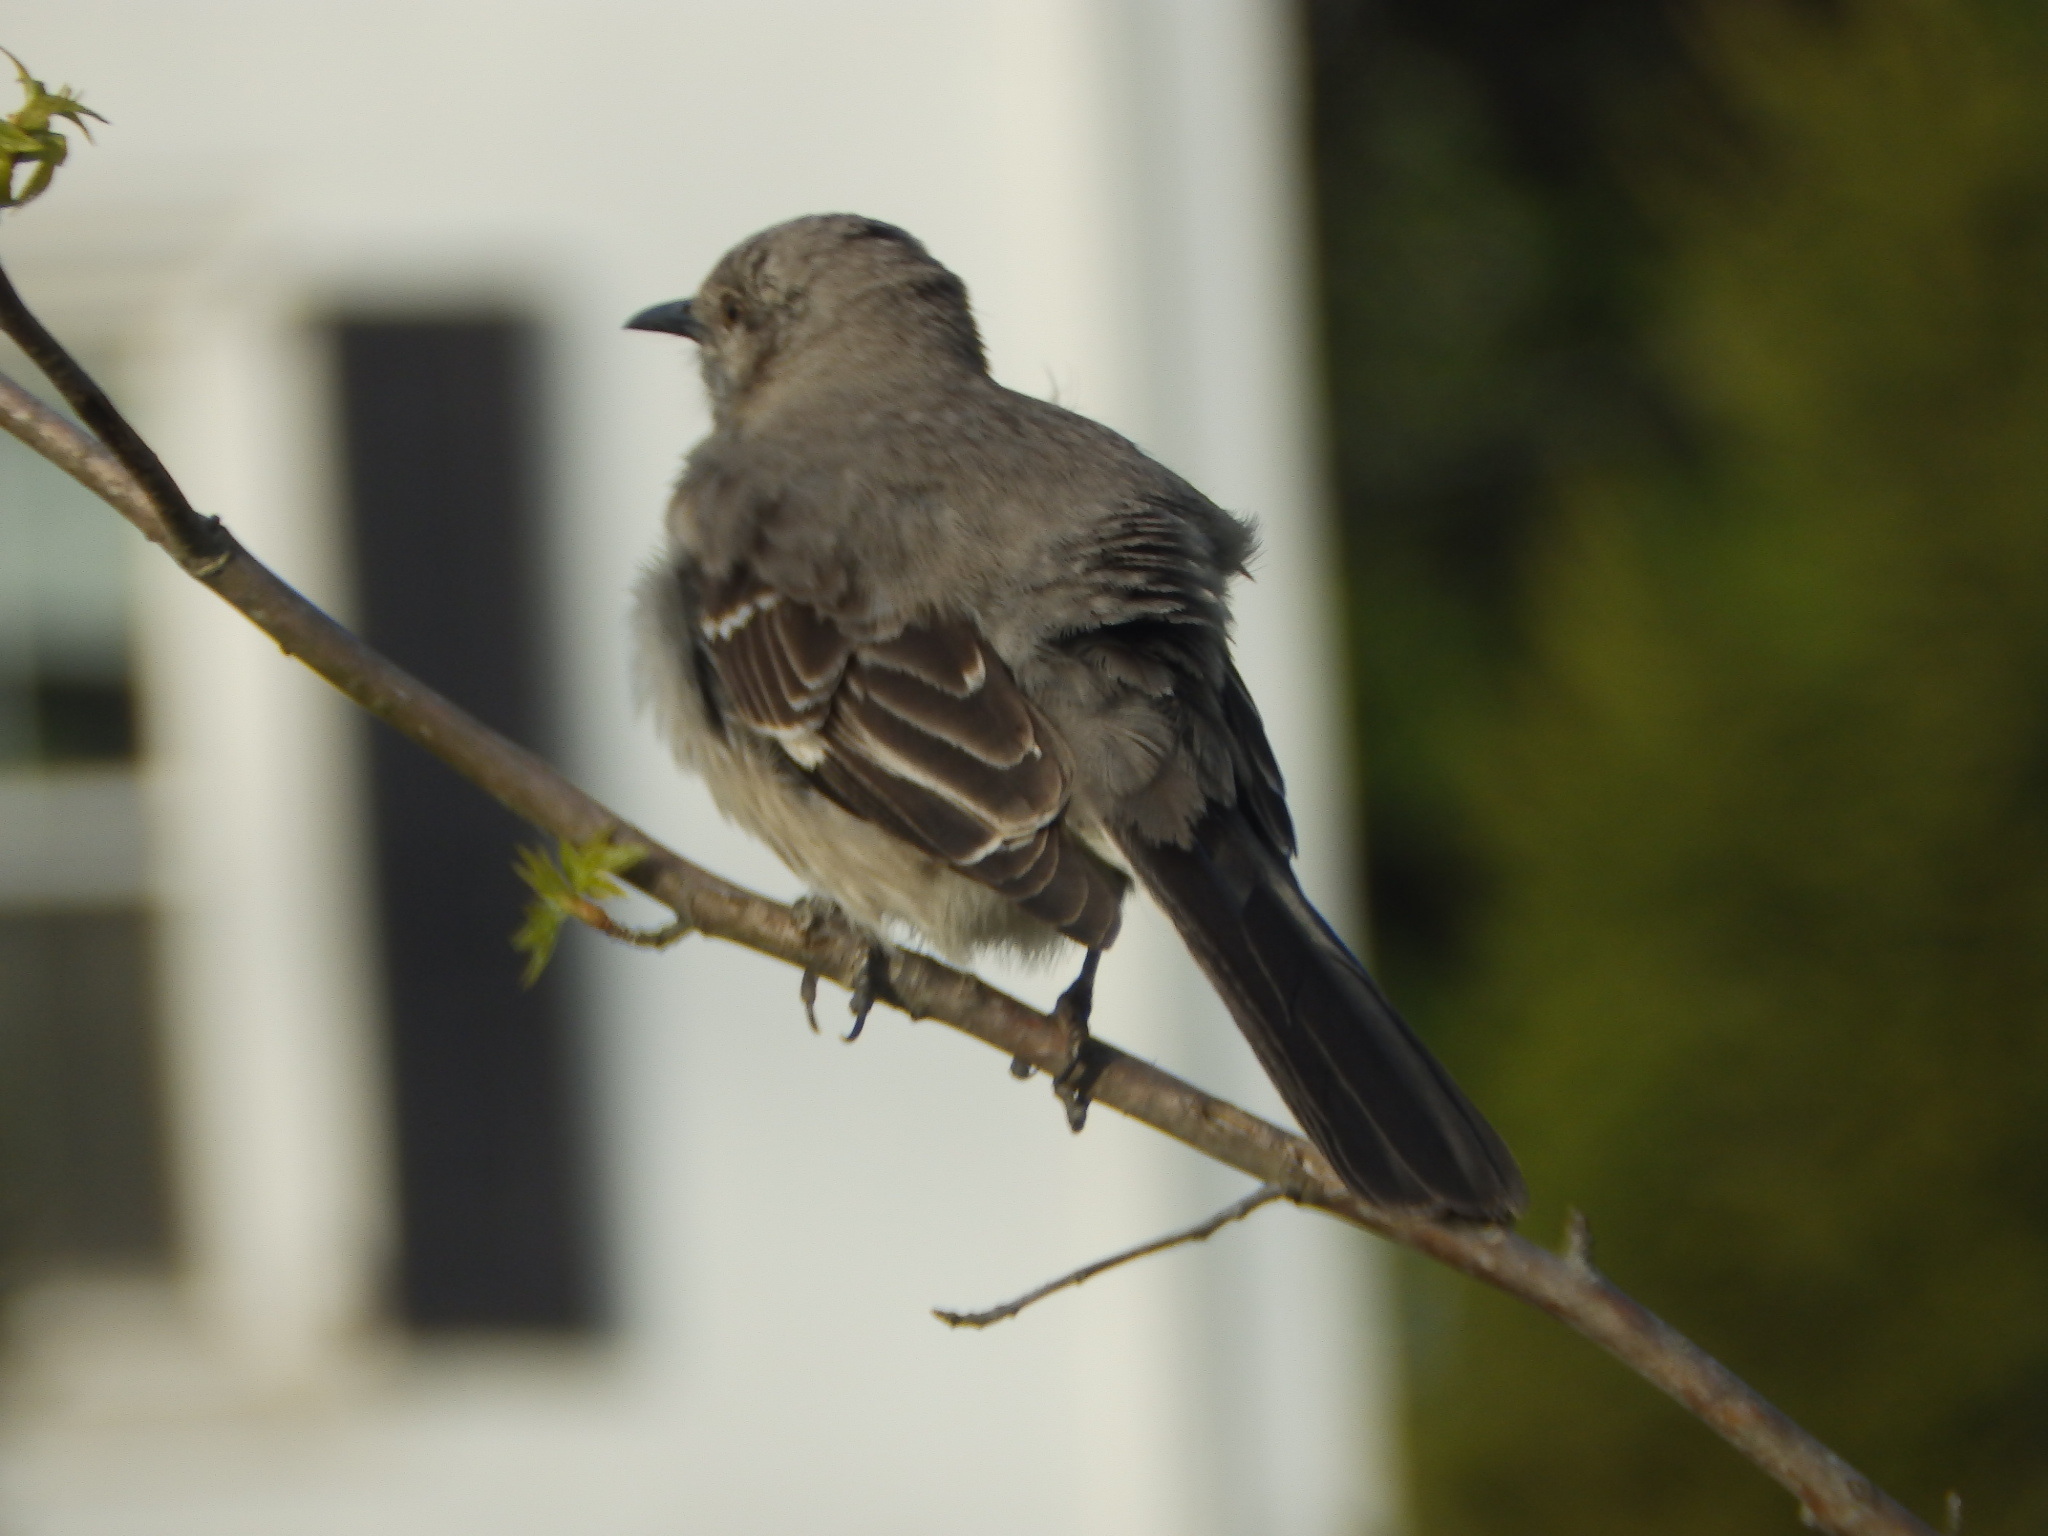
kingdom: Animalia
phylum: Chordata
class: Aves
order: Passeriformes
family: Mimidae
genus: Mimus
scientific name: Mimus polyglottos
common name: Northern mockingbird
